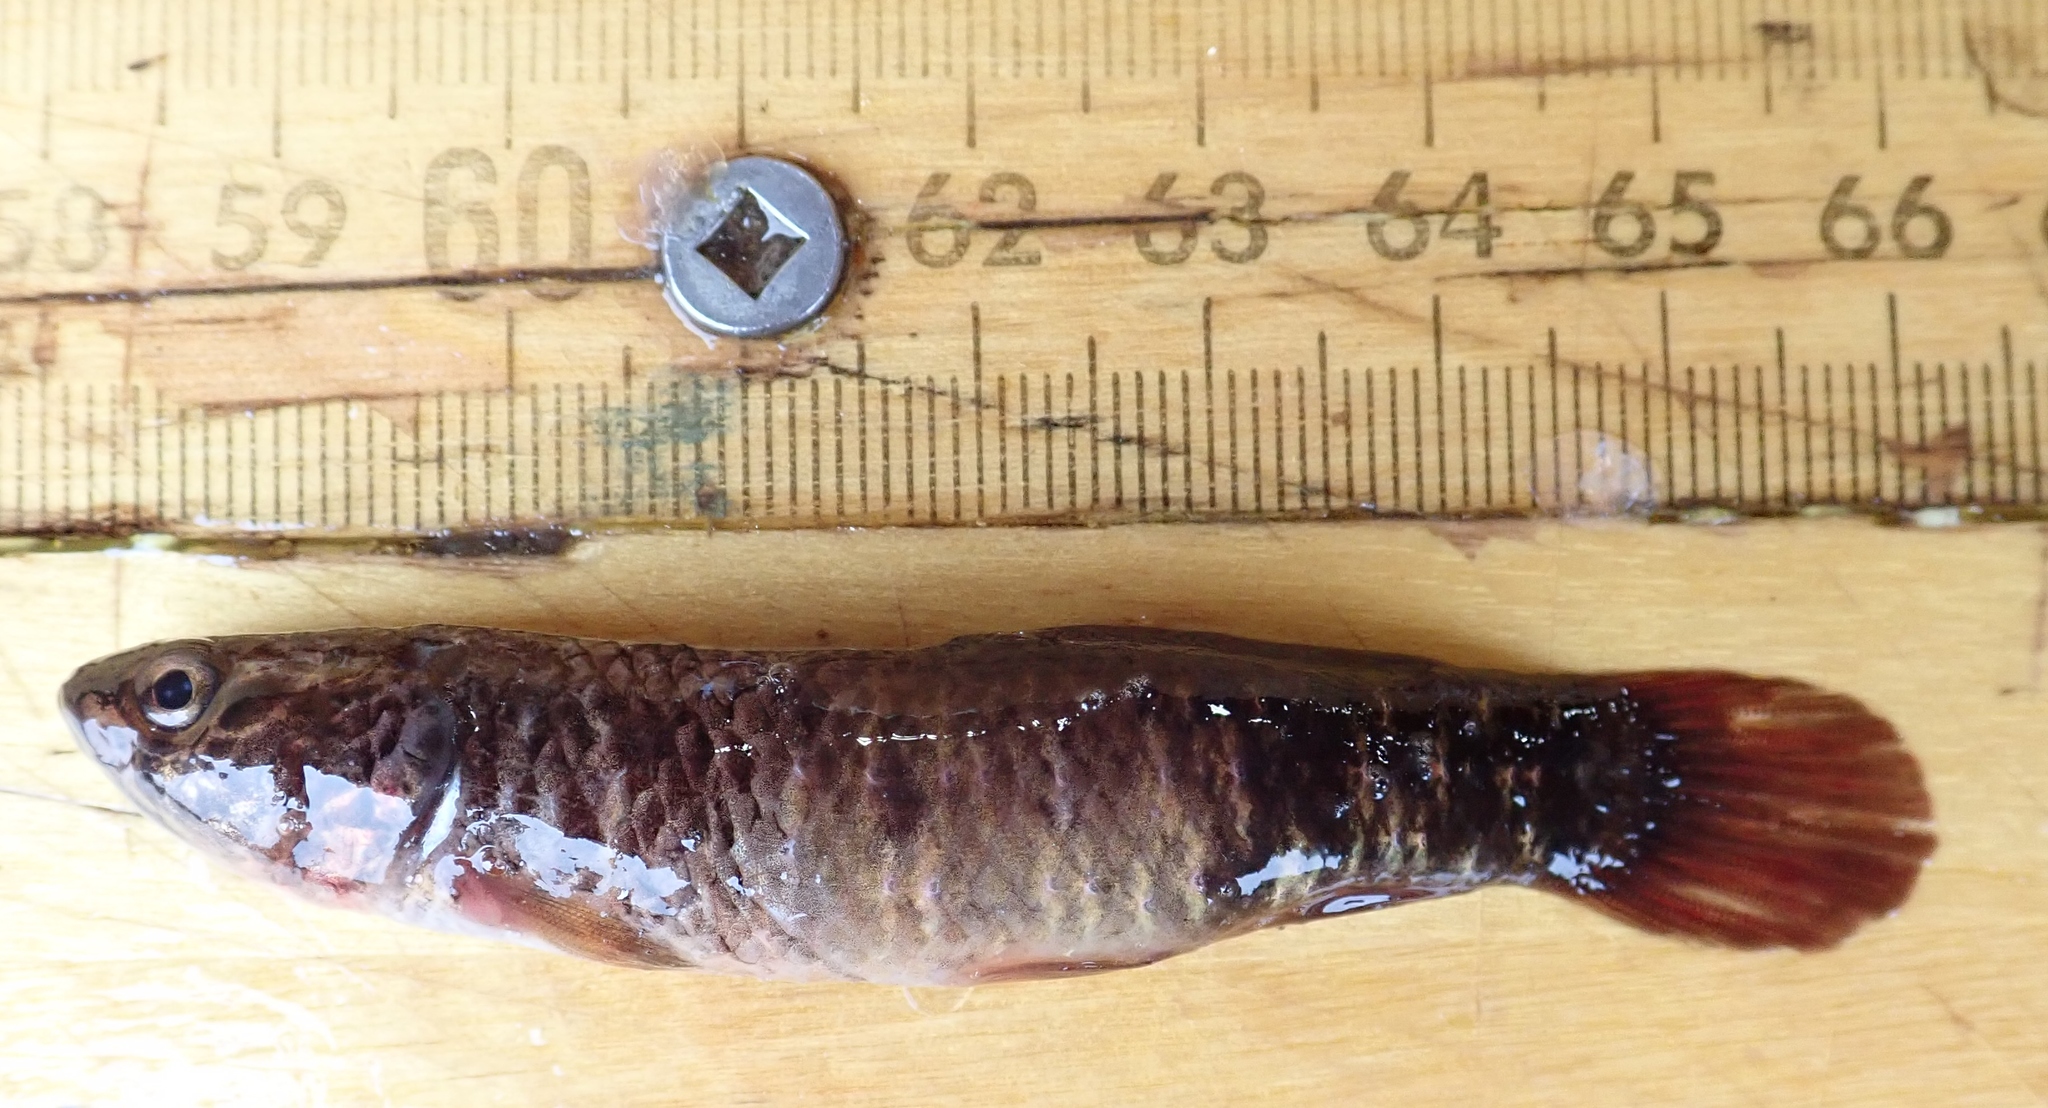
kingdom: Animalia
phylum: Chordata
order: Esociformes
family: Umbridae
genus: Umbra
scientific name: Umbra limi
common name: Central mudminnow
